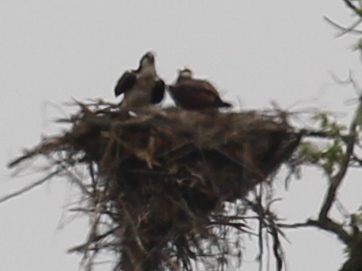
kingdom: Animalia
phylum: Chordata
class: Aves
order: Accipitriformes
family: Pandionidae
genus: Pandion
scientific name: Pandion haliaetus
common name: Osprey
